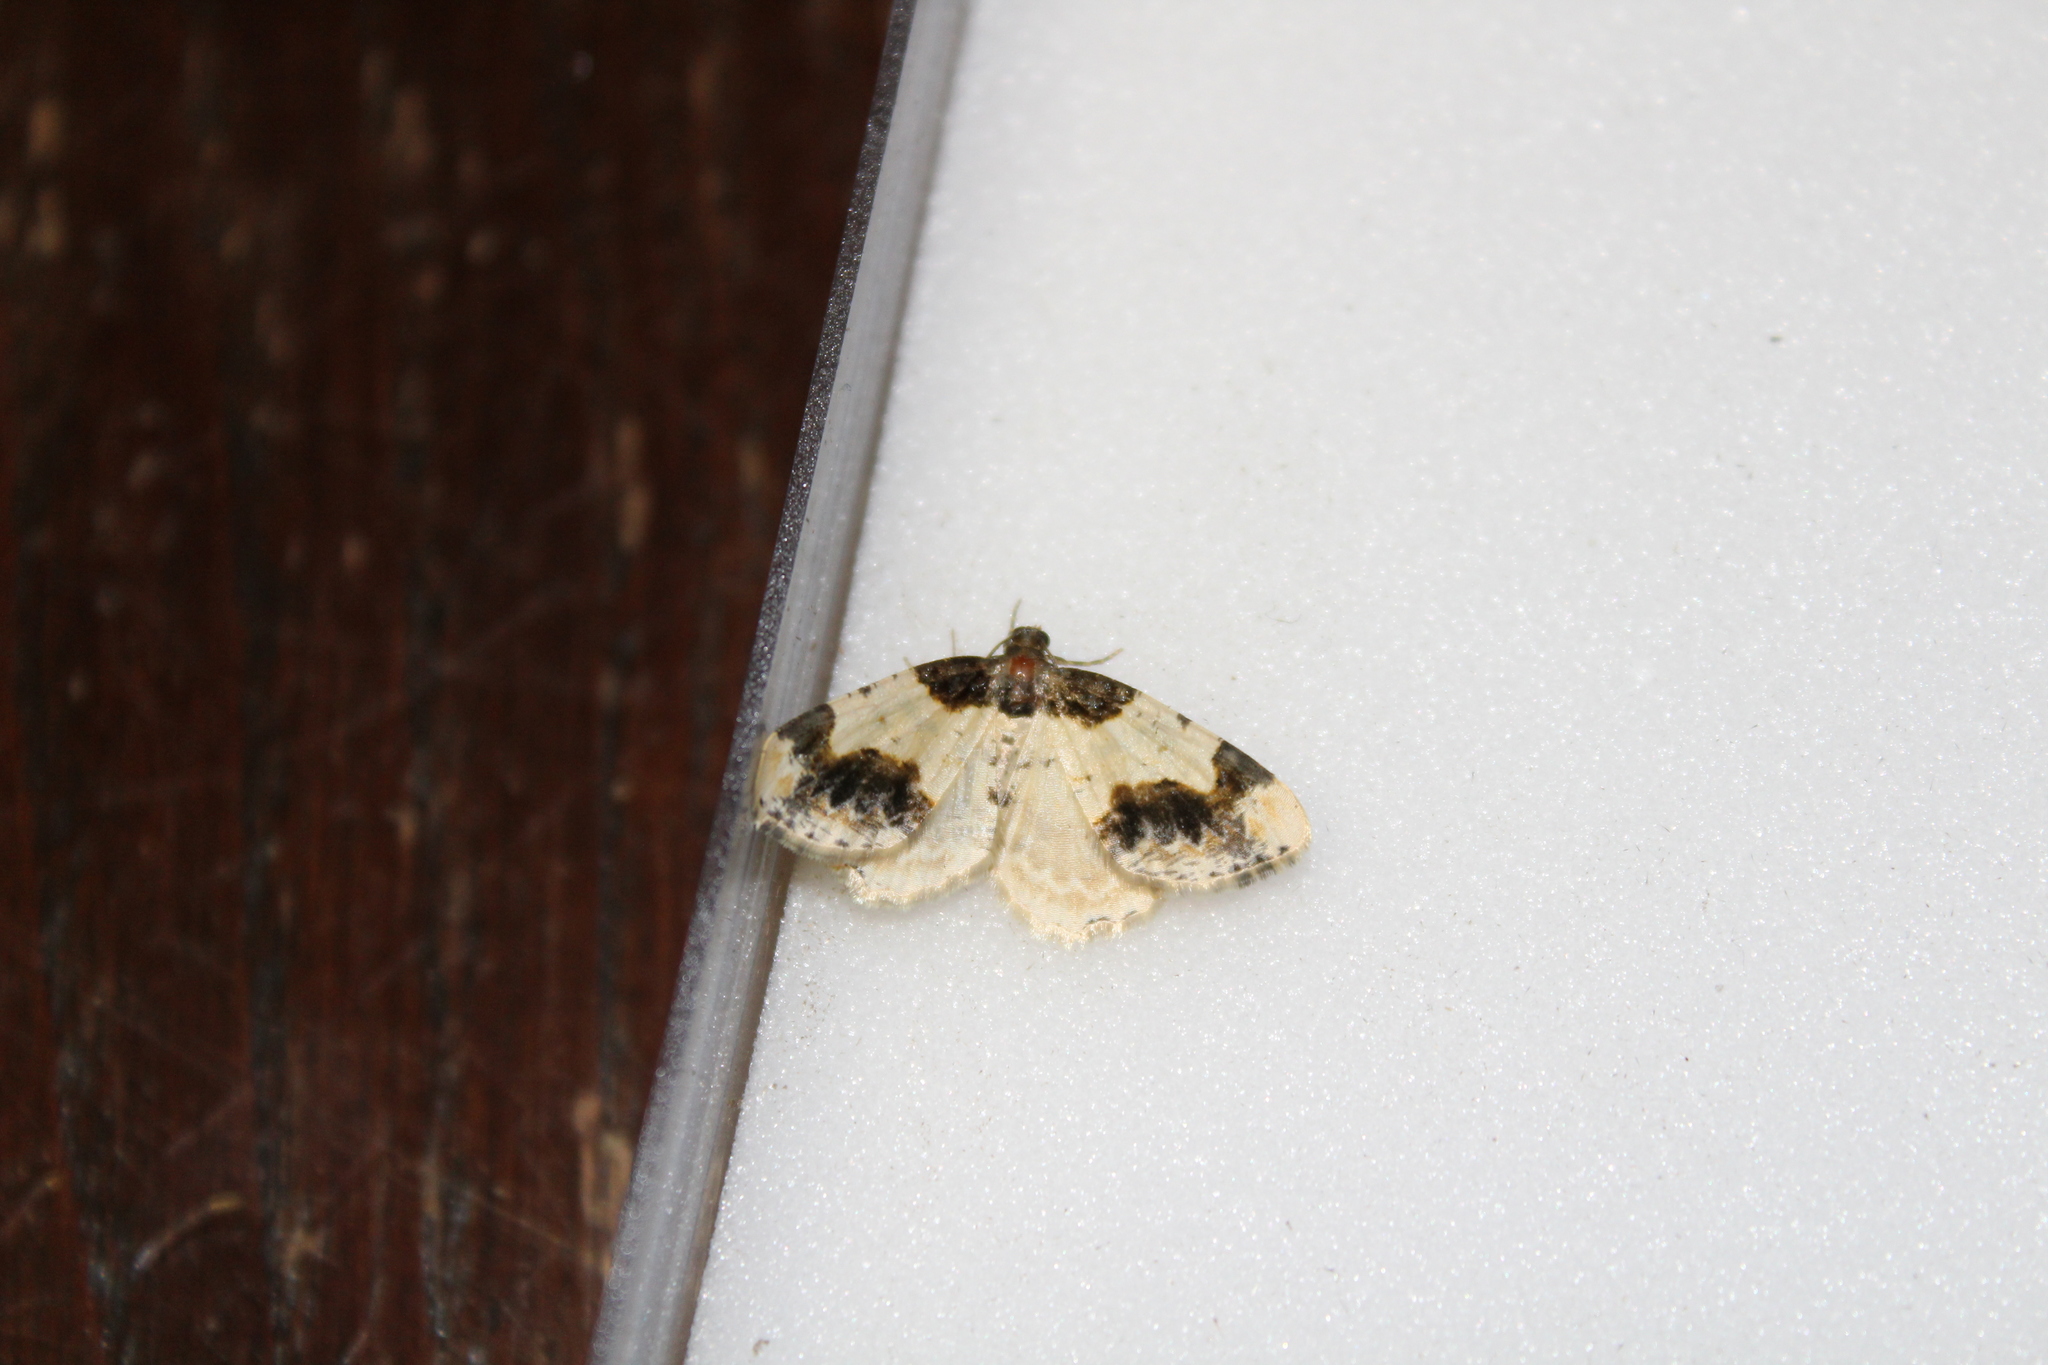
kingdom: Animalia
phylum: Arthropoda
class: Insecta
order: Lepidoptera
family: Geometridae
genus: Ligdia
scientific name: Ligdia adustata
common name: Scorched carpet
